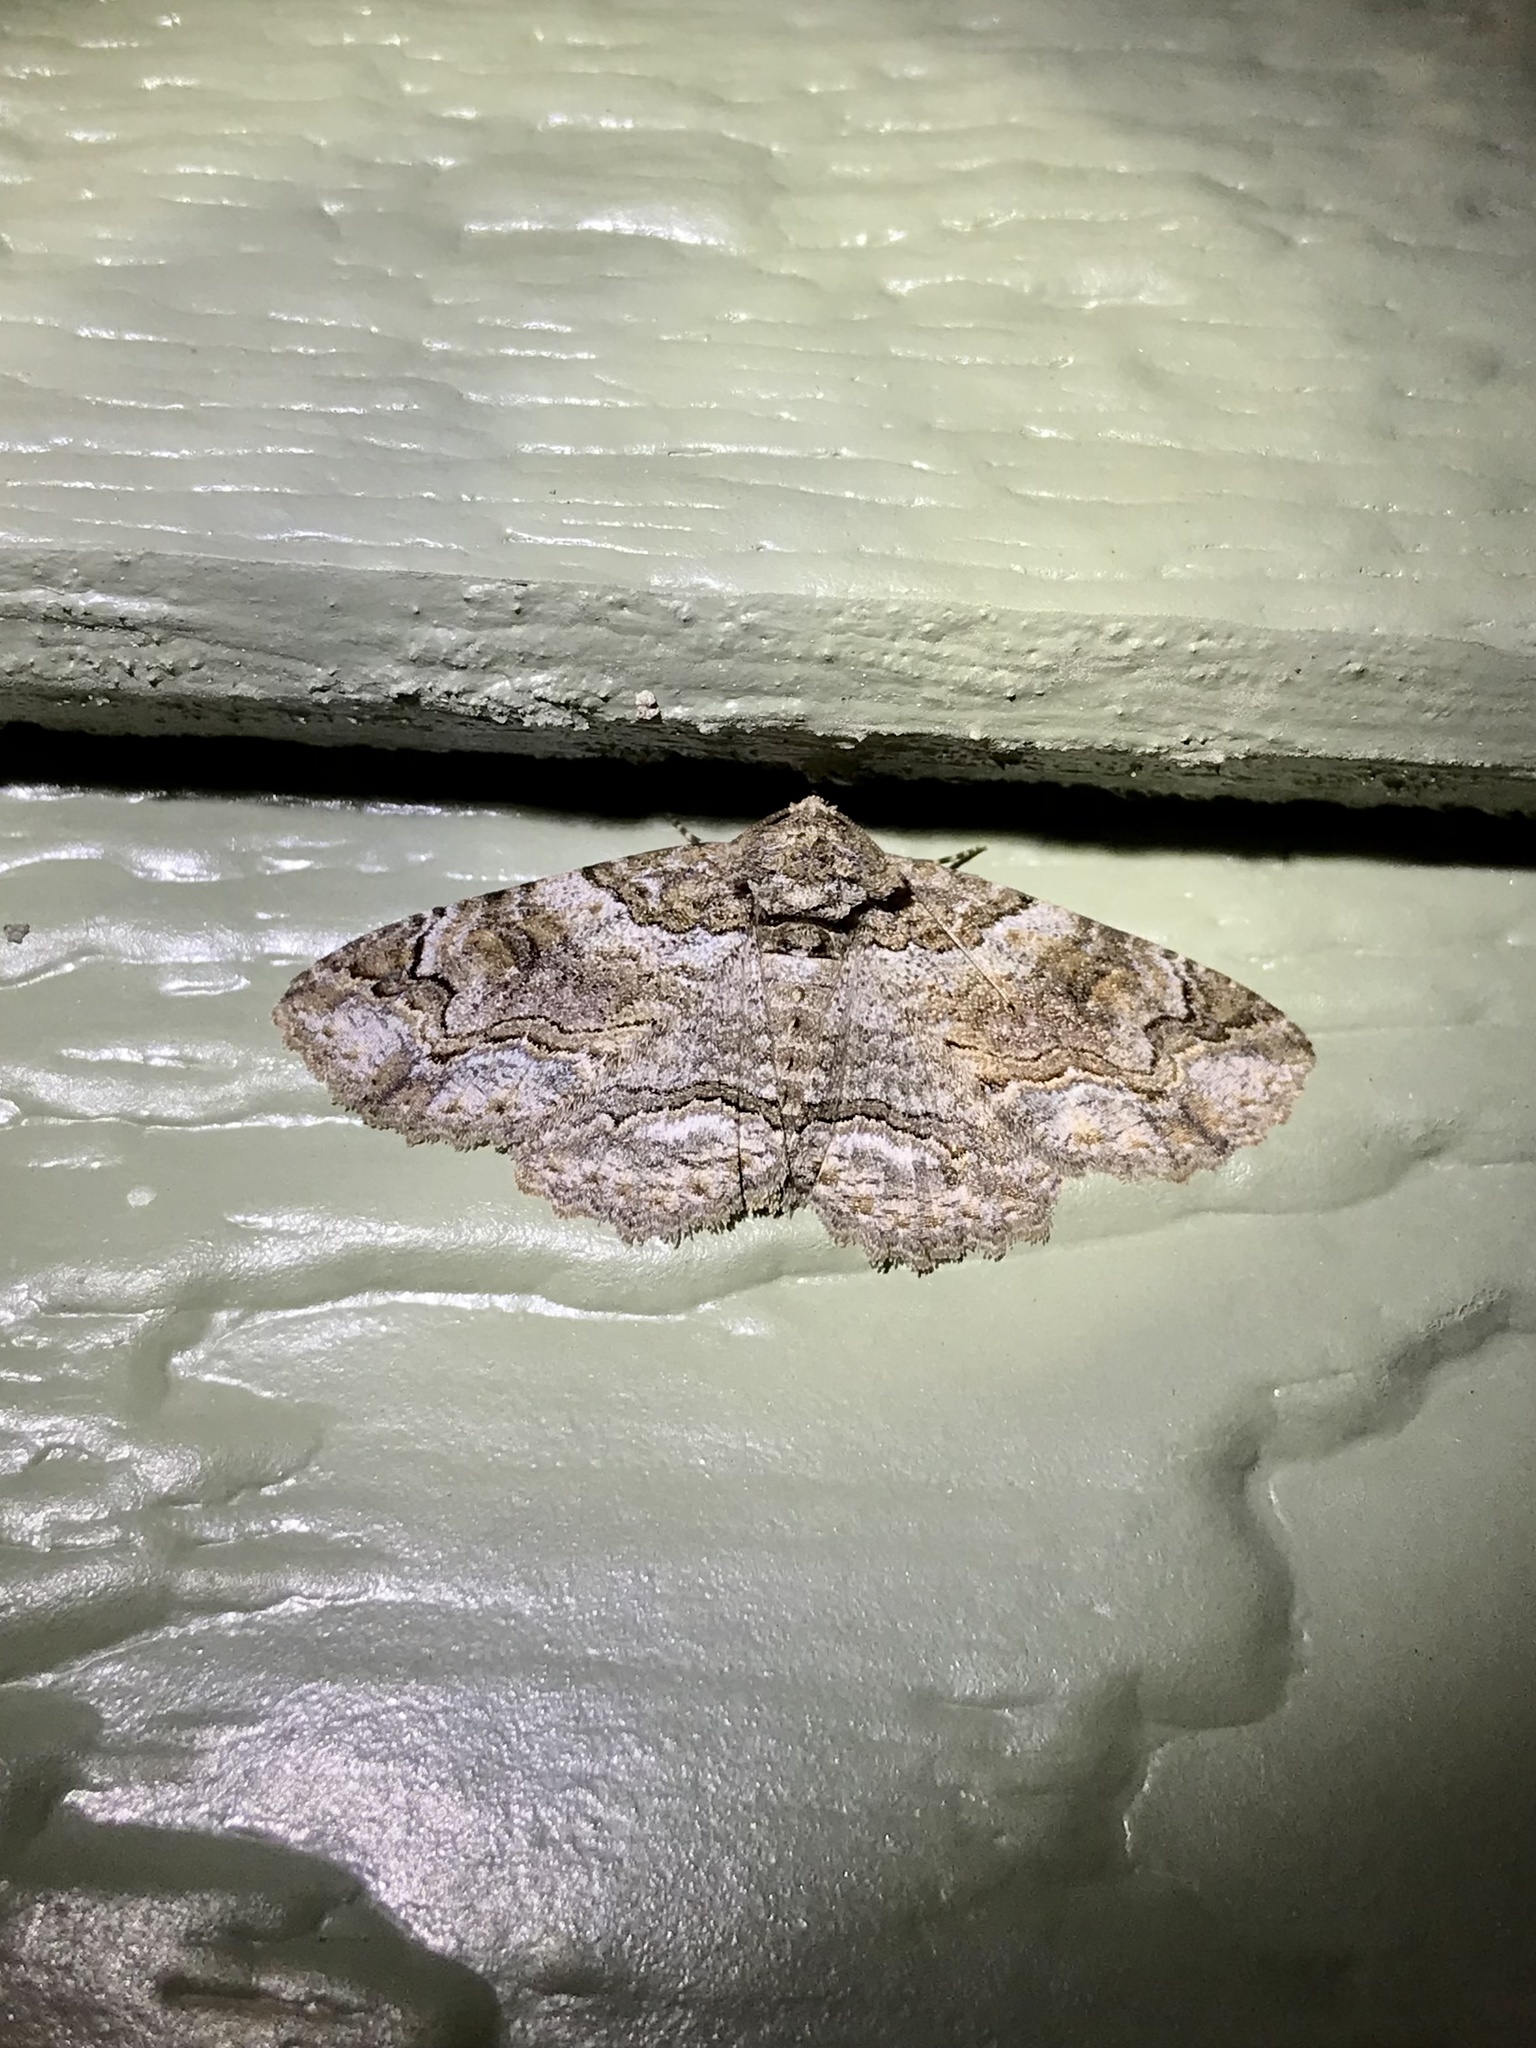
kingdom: Animalia
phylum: Arthropoda
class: Insecta
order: Lepidoptera
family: Erebidae
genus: Zale
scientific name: Zale galbanata
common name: Maple zale
